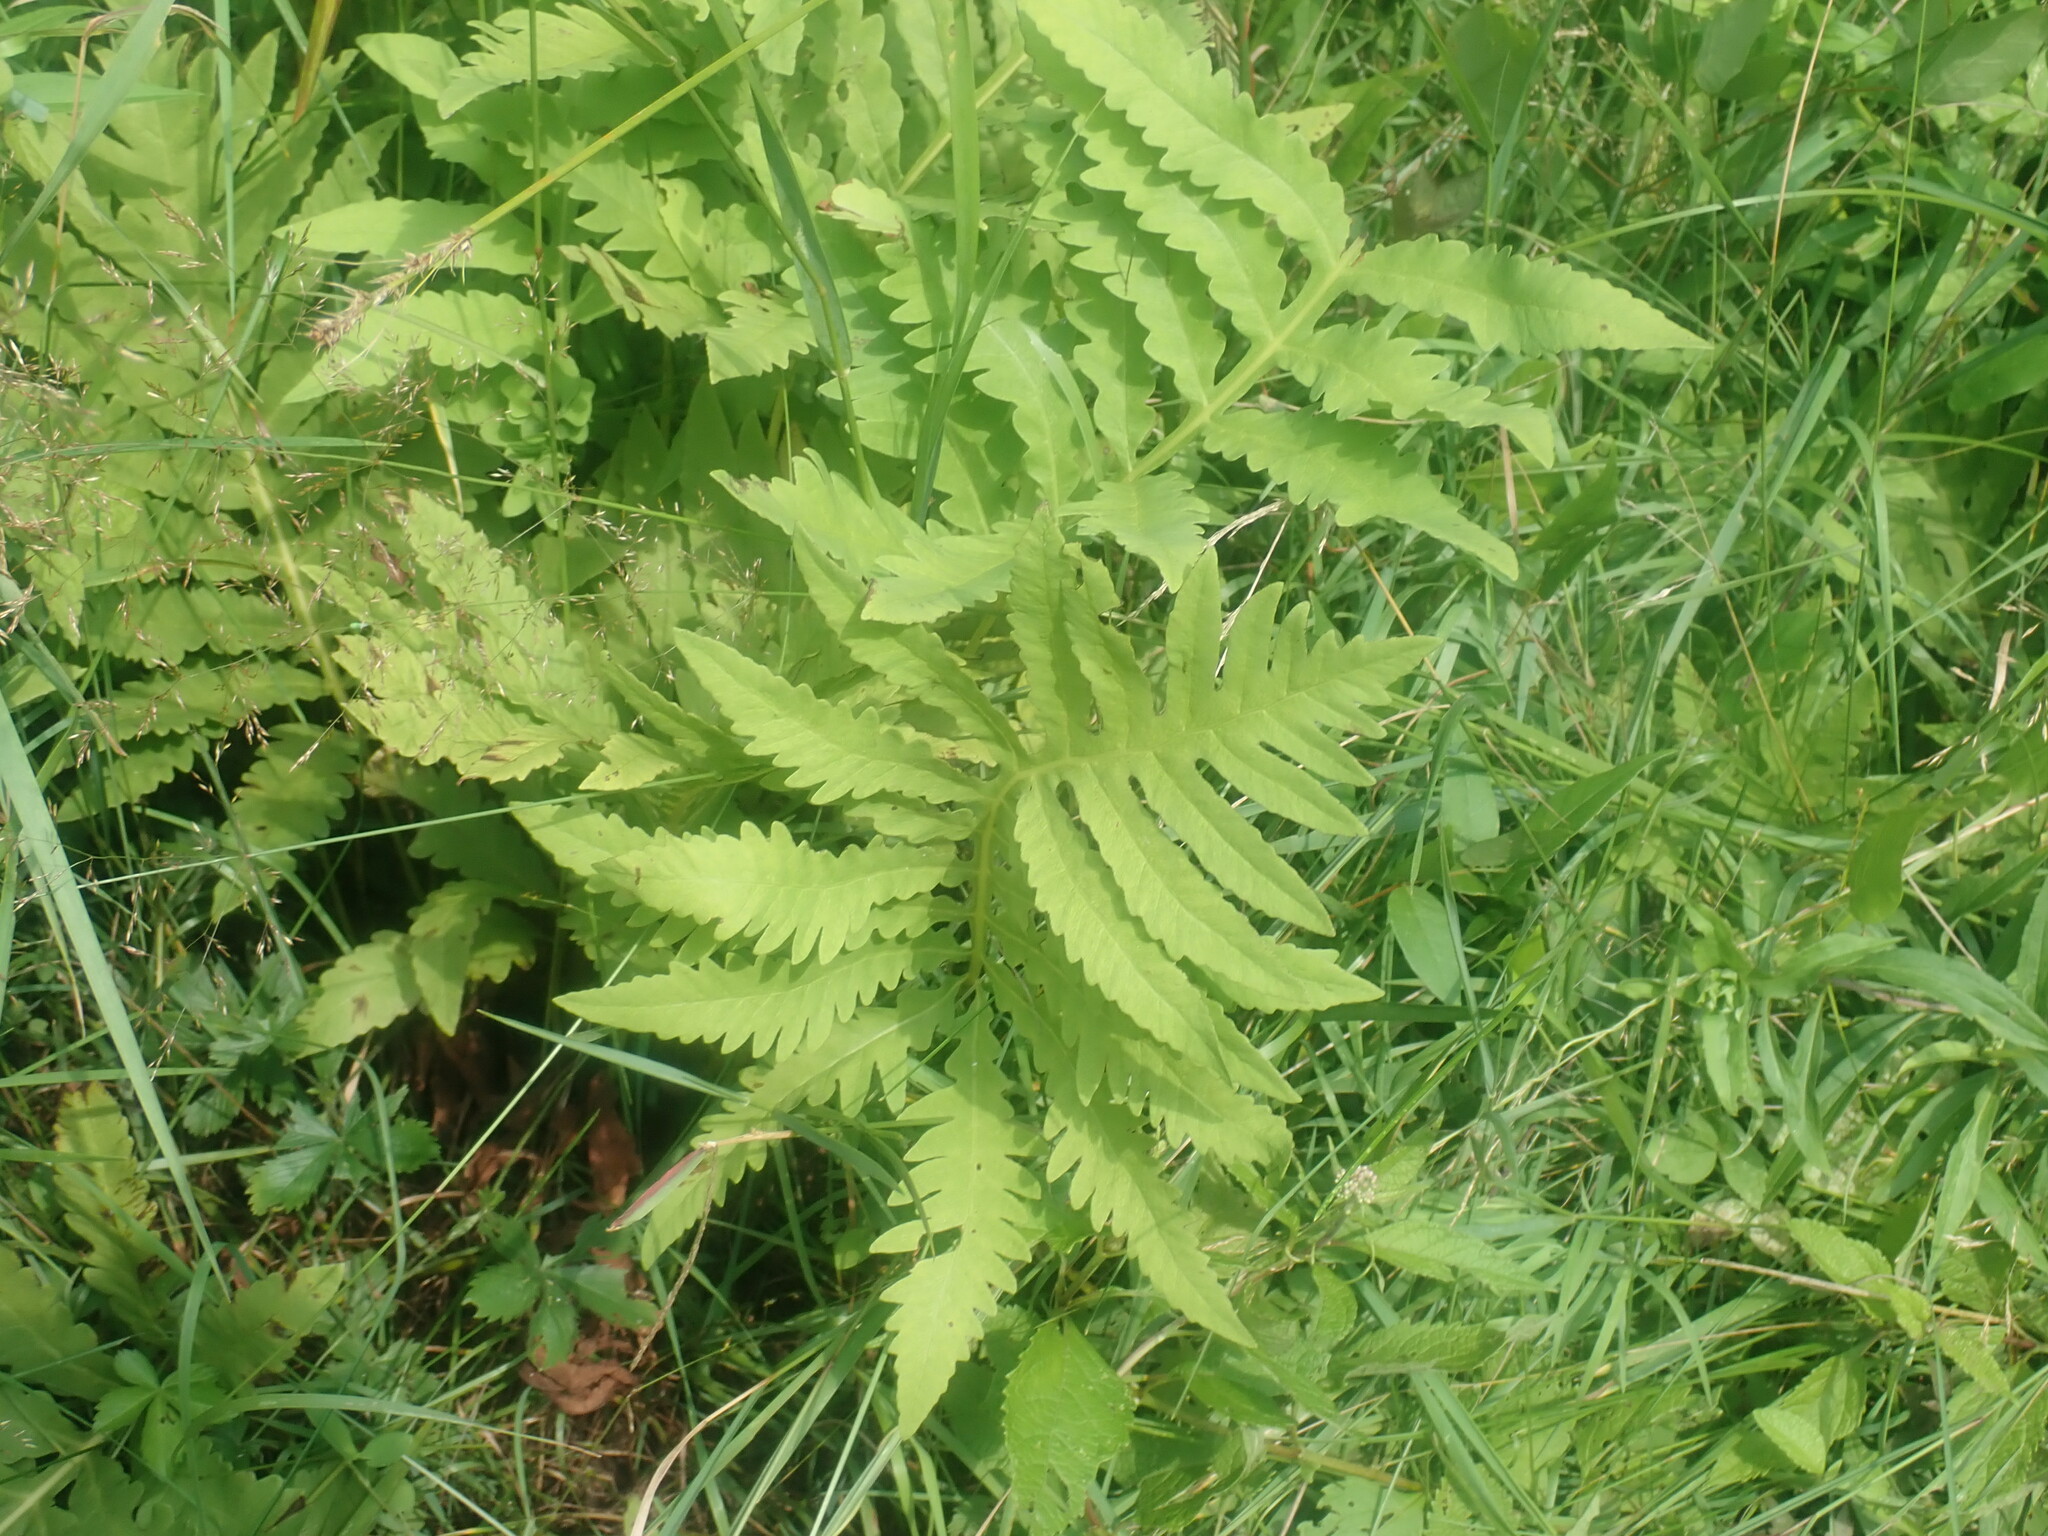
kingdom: Plantae
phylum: Tracheophyta
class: Polypodiopsida
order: Polypodiales
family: Onocleaceae
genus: Onoclea
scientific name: Onoclea sensibilis
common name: Sensitive fern
